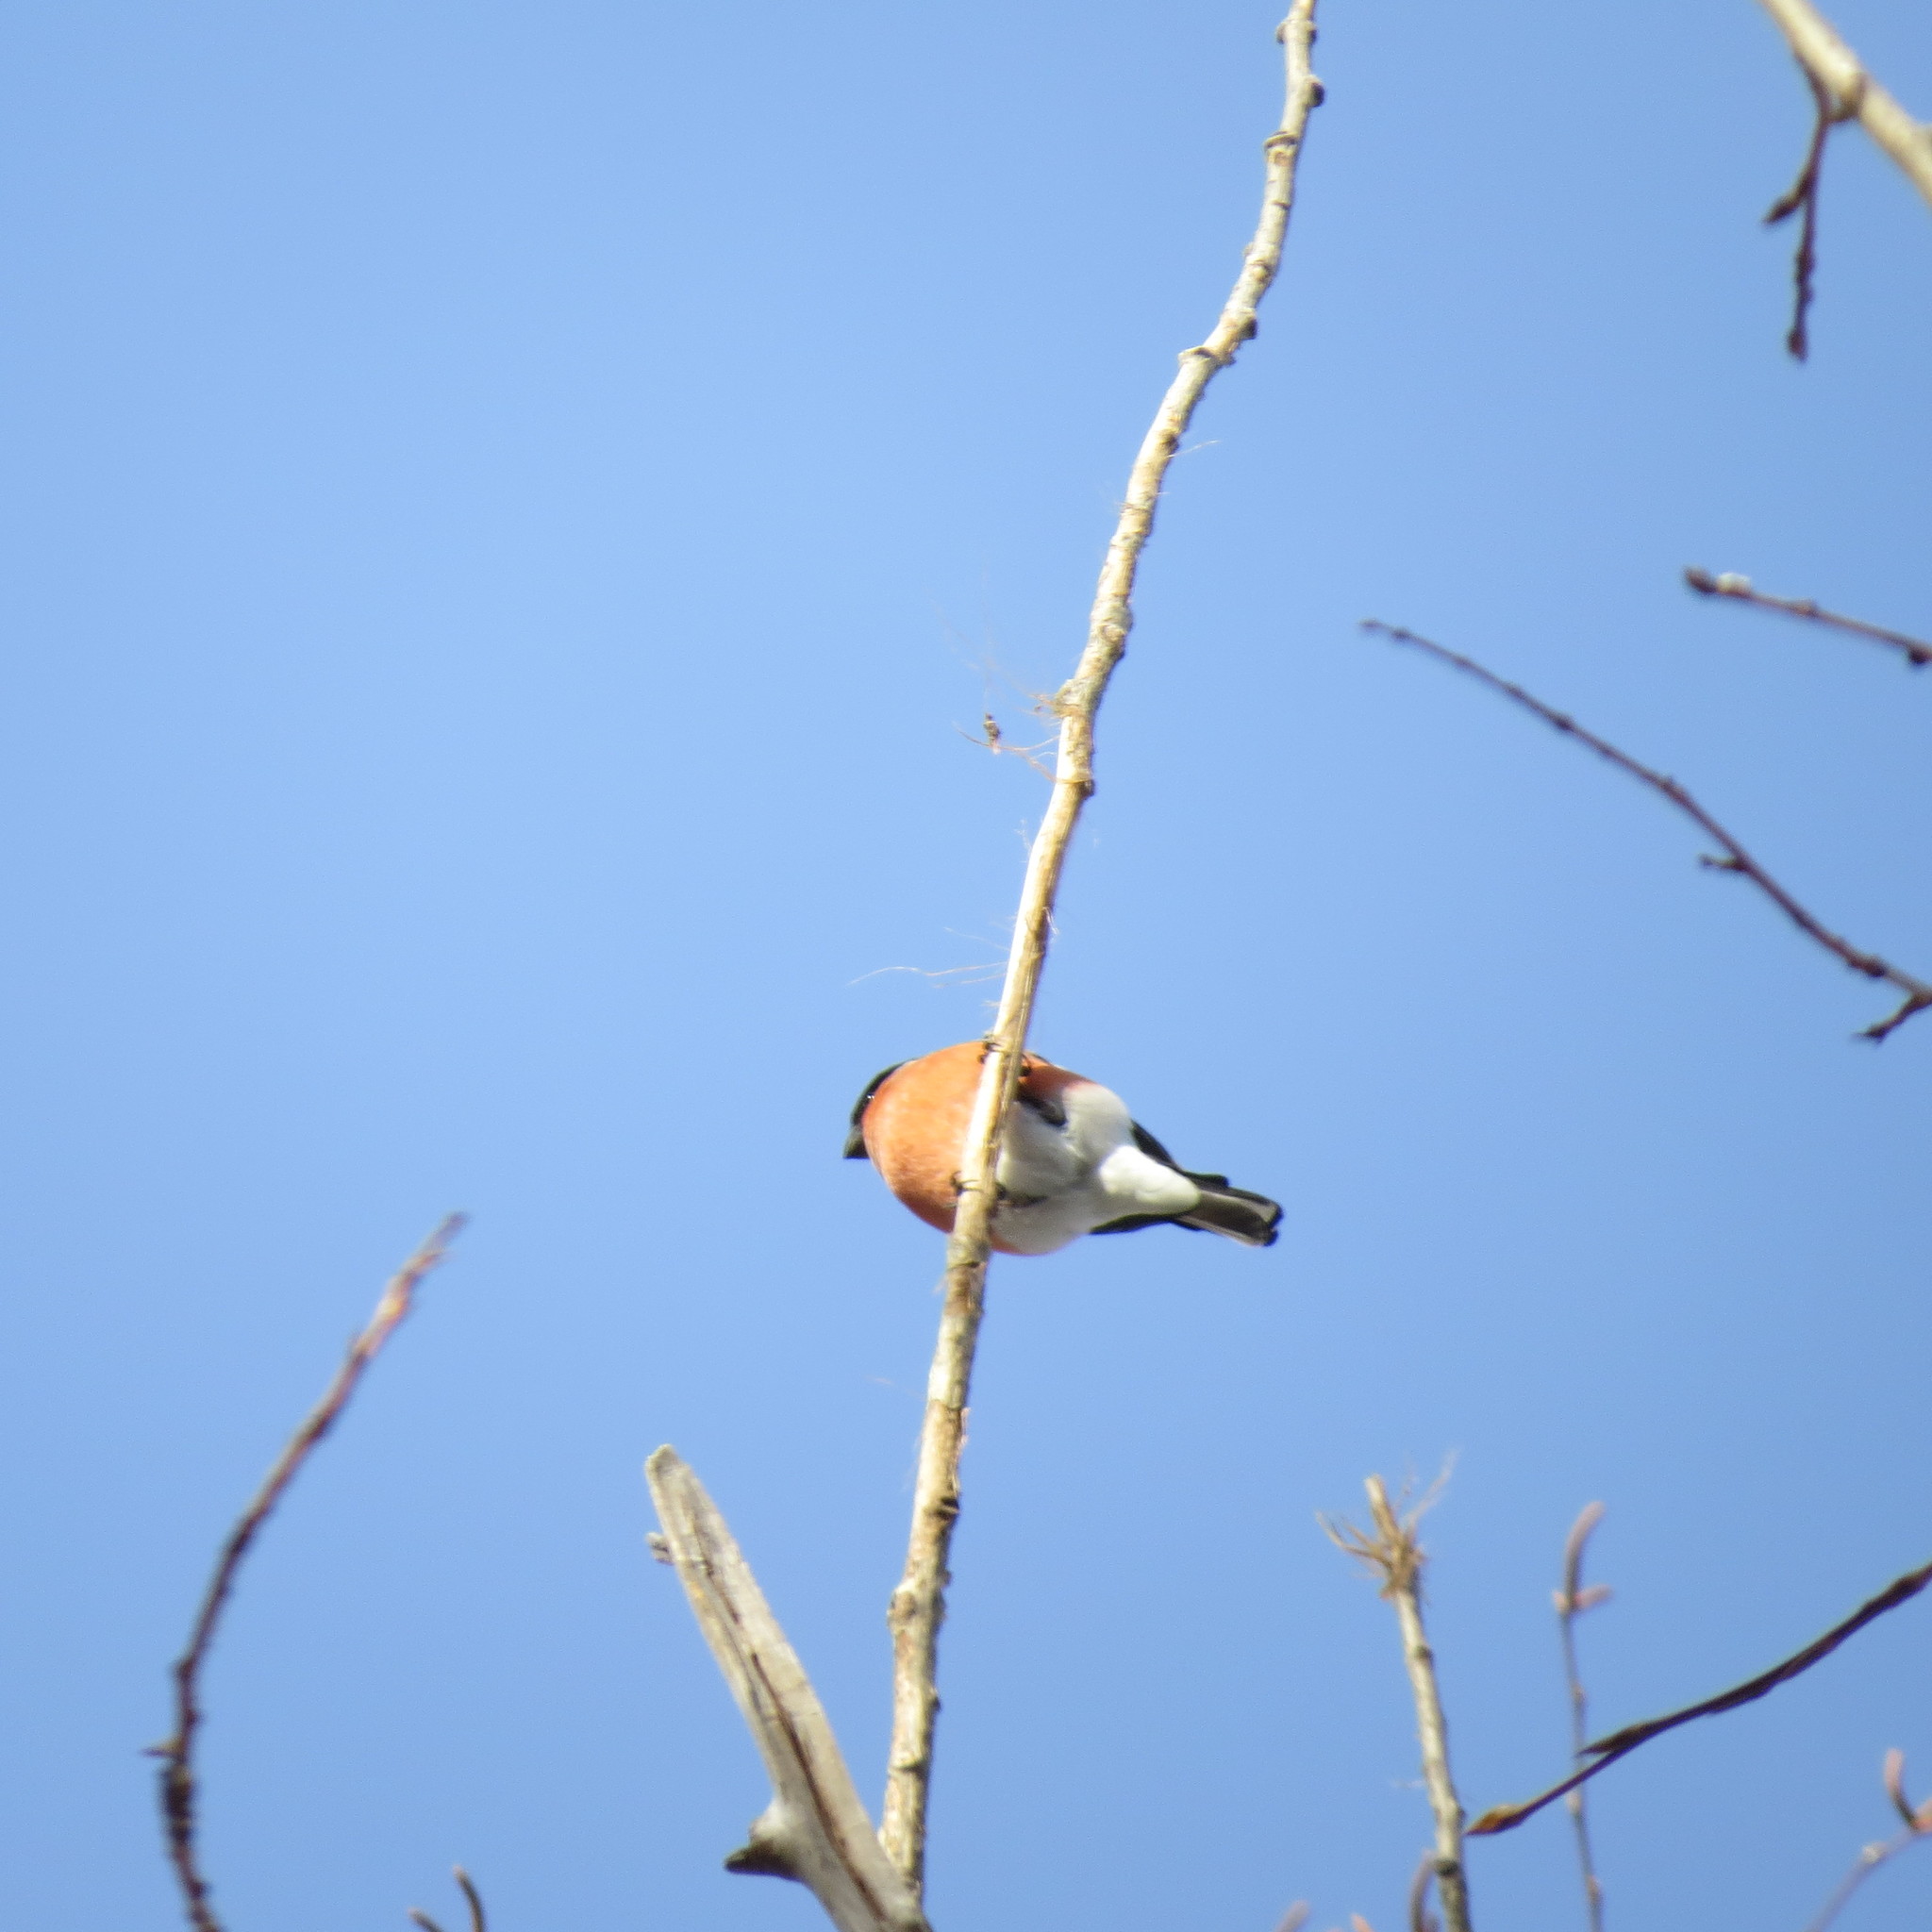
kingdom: Animalia
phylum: Chordata
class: Aves
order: Passeriformes
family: Fringillidae
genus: Pyrrhula
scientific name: Pyrrhula pyrrhula
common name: Eurasian bullfinch
